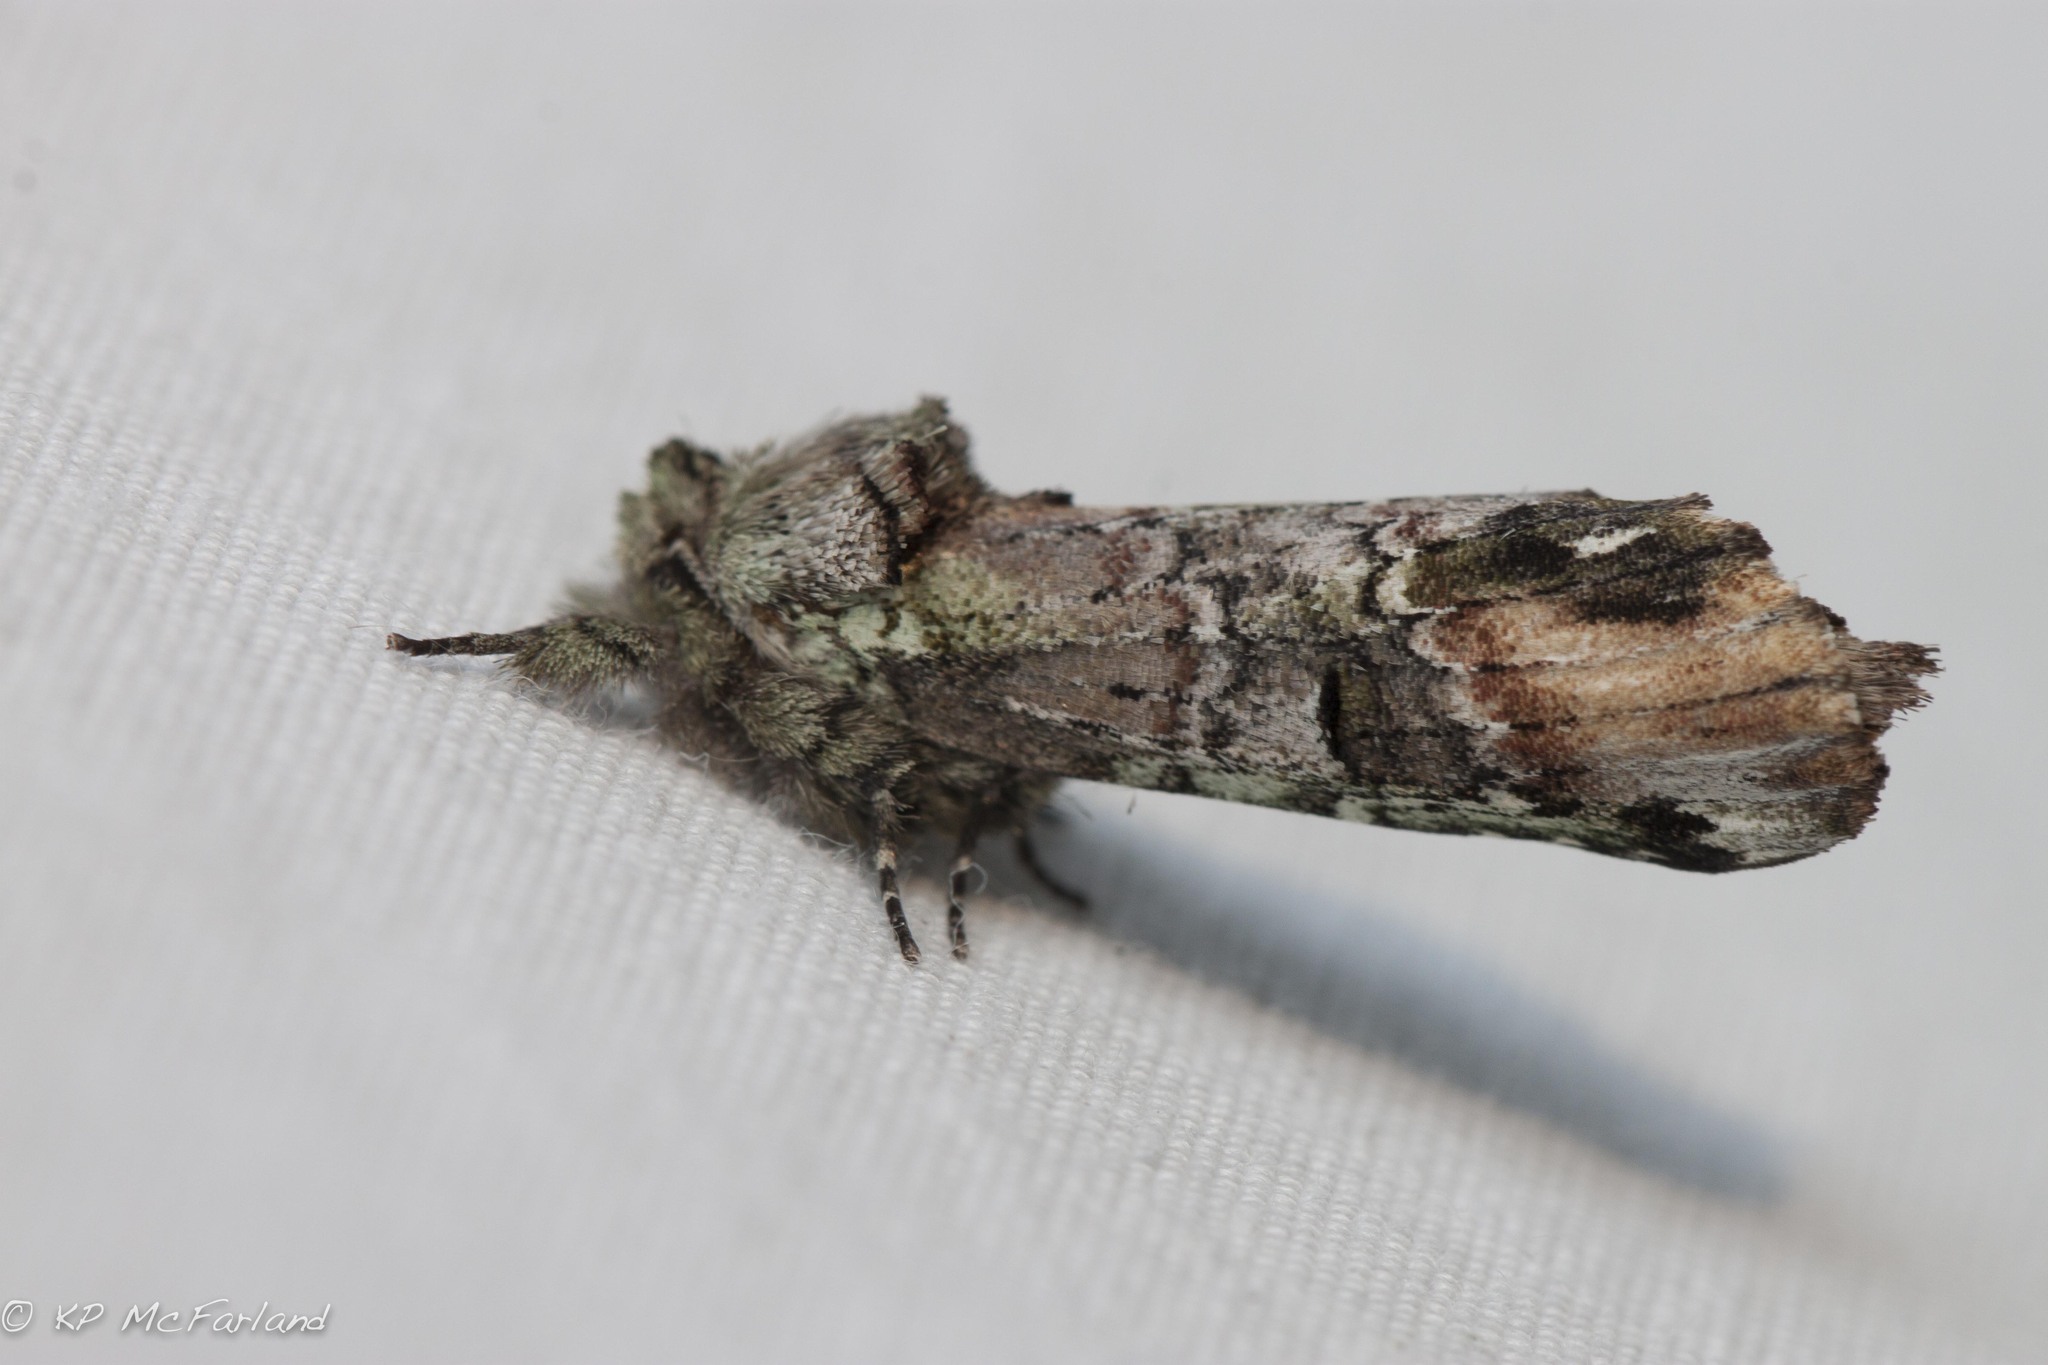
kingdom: Animalia
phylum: Arthropoda
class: Insecta
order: Lepidoptera
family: Notodontidae
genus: Schizura
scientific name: Schizura
